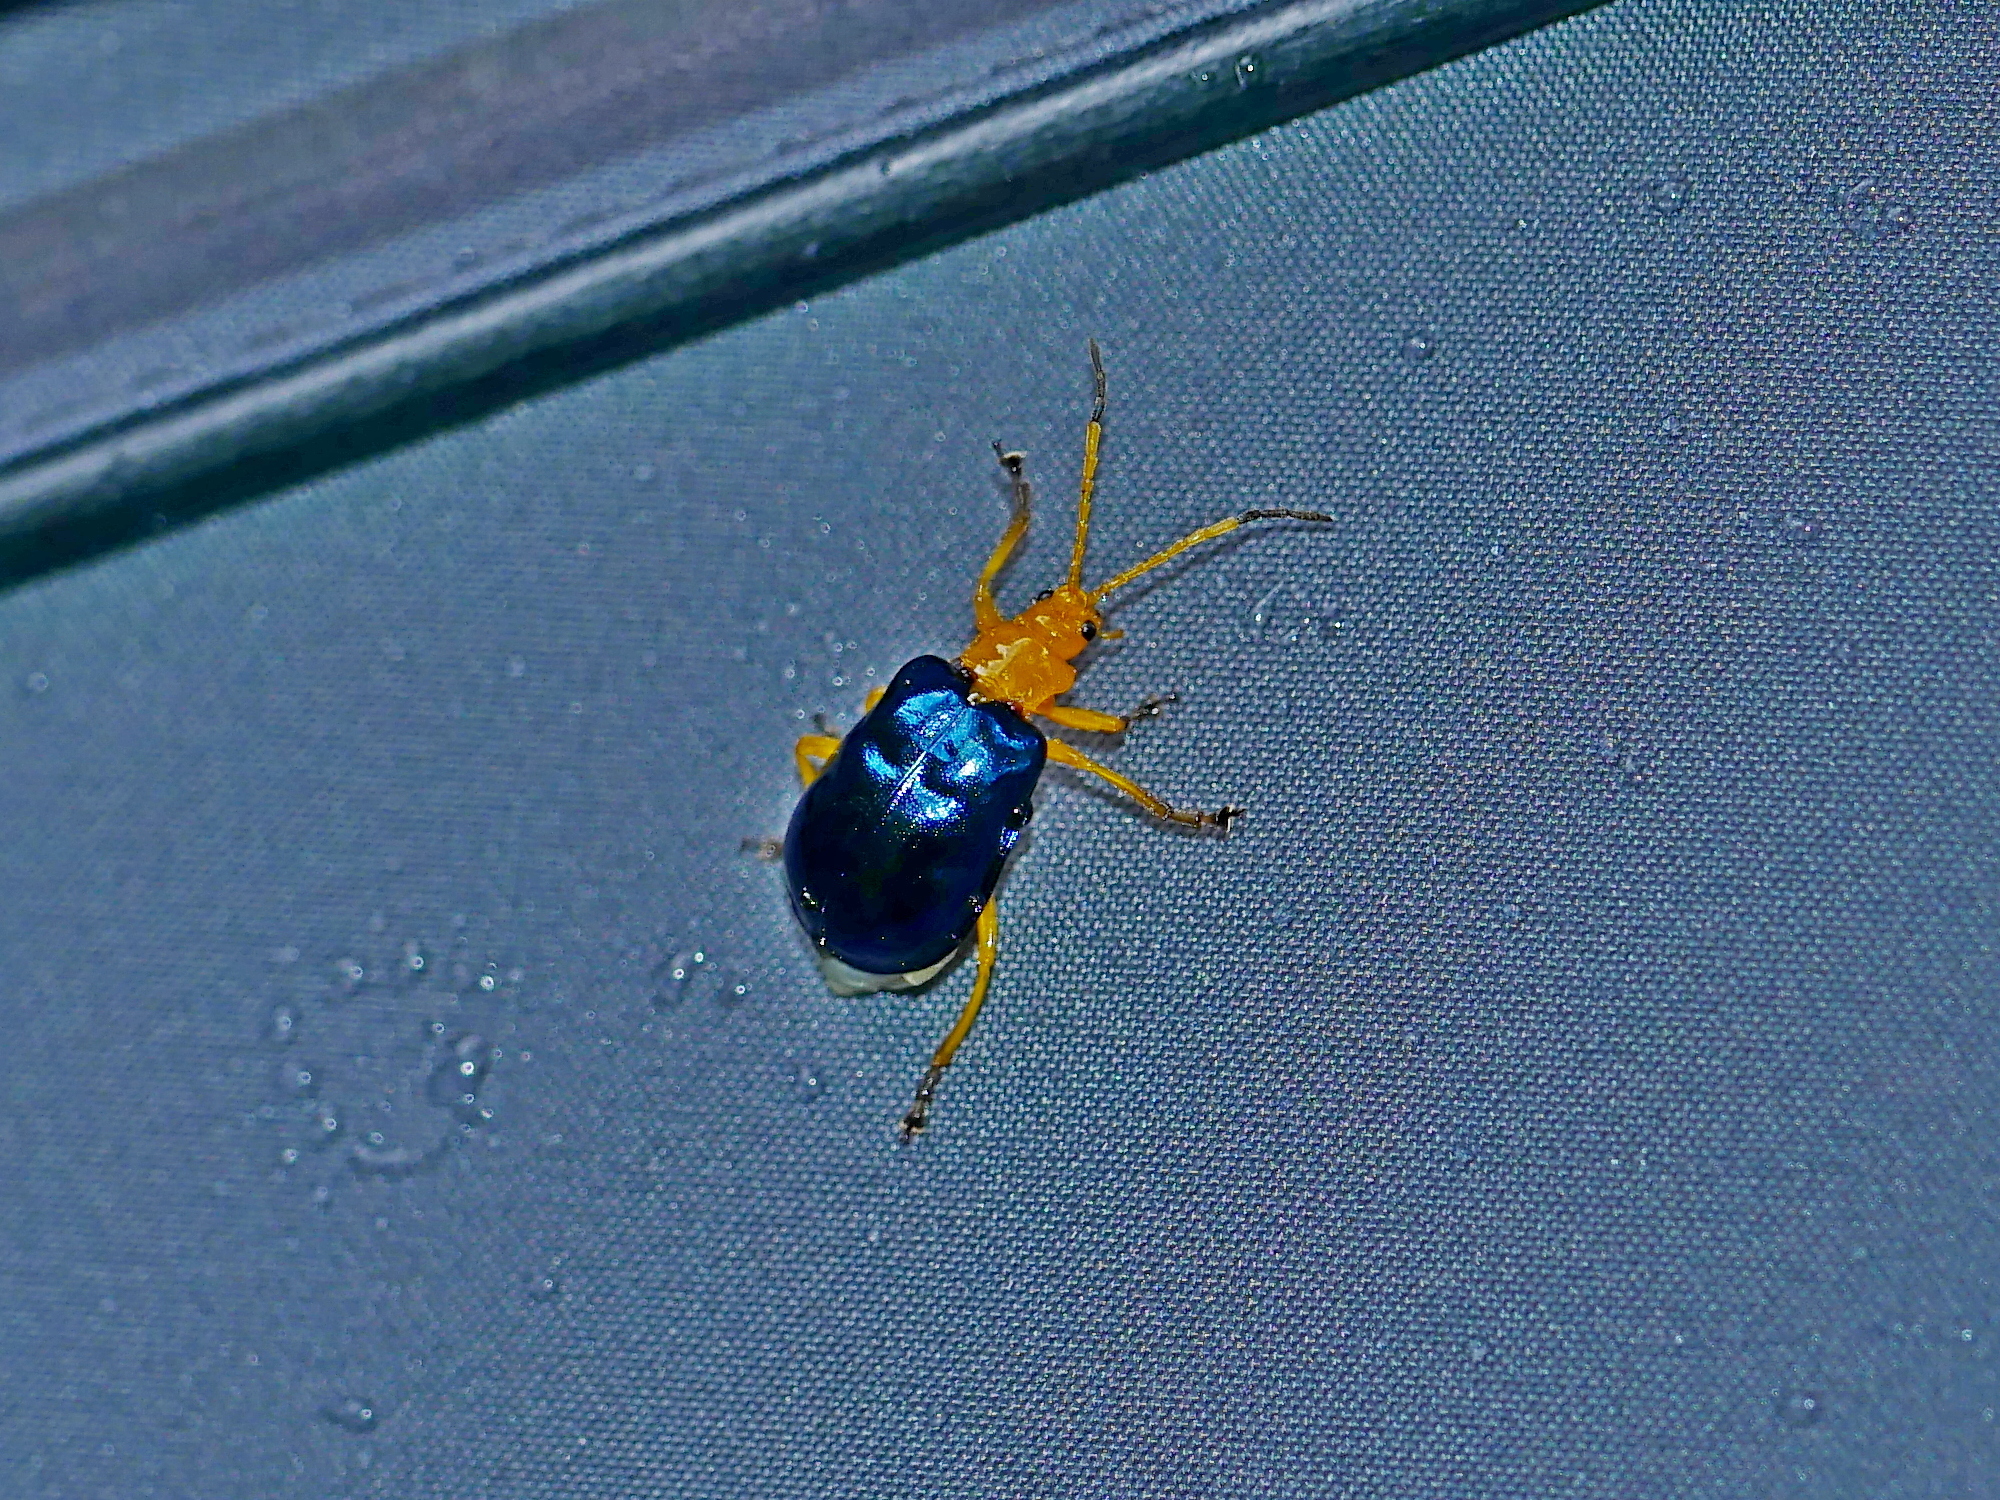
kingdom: Animalia
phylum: Arthropoda
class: Insecta
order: Coleoptera
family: Chrysomelidae
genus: Agetocera
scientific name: Agetocera discedens
